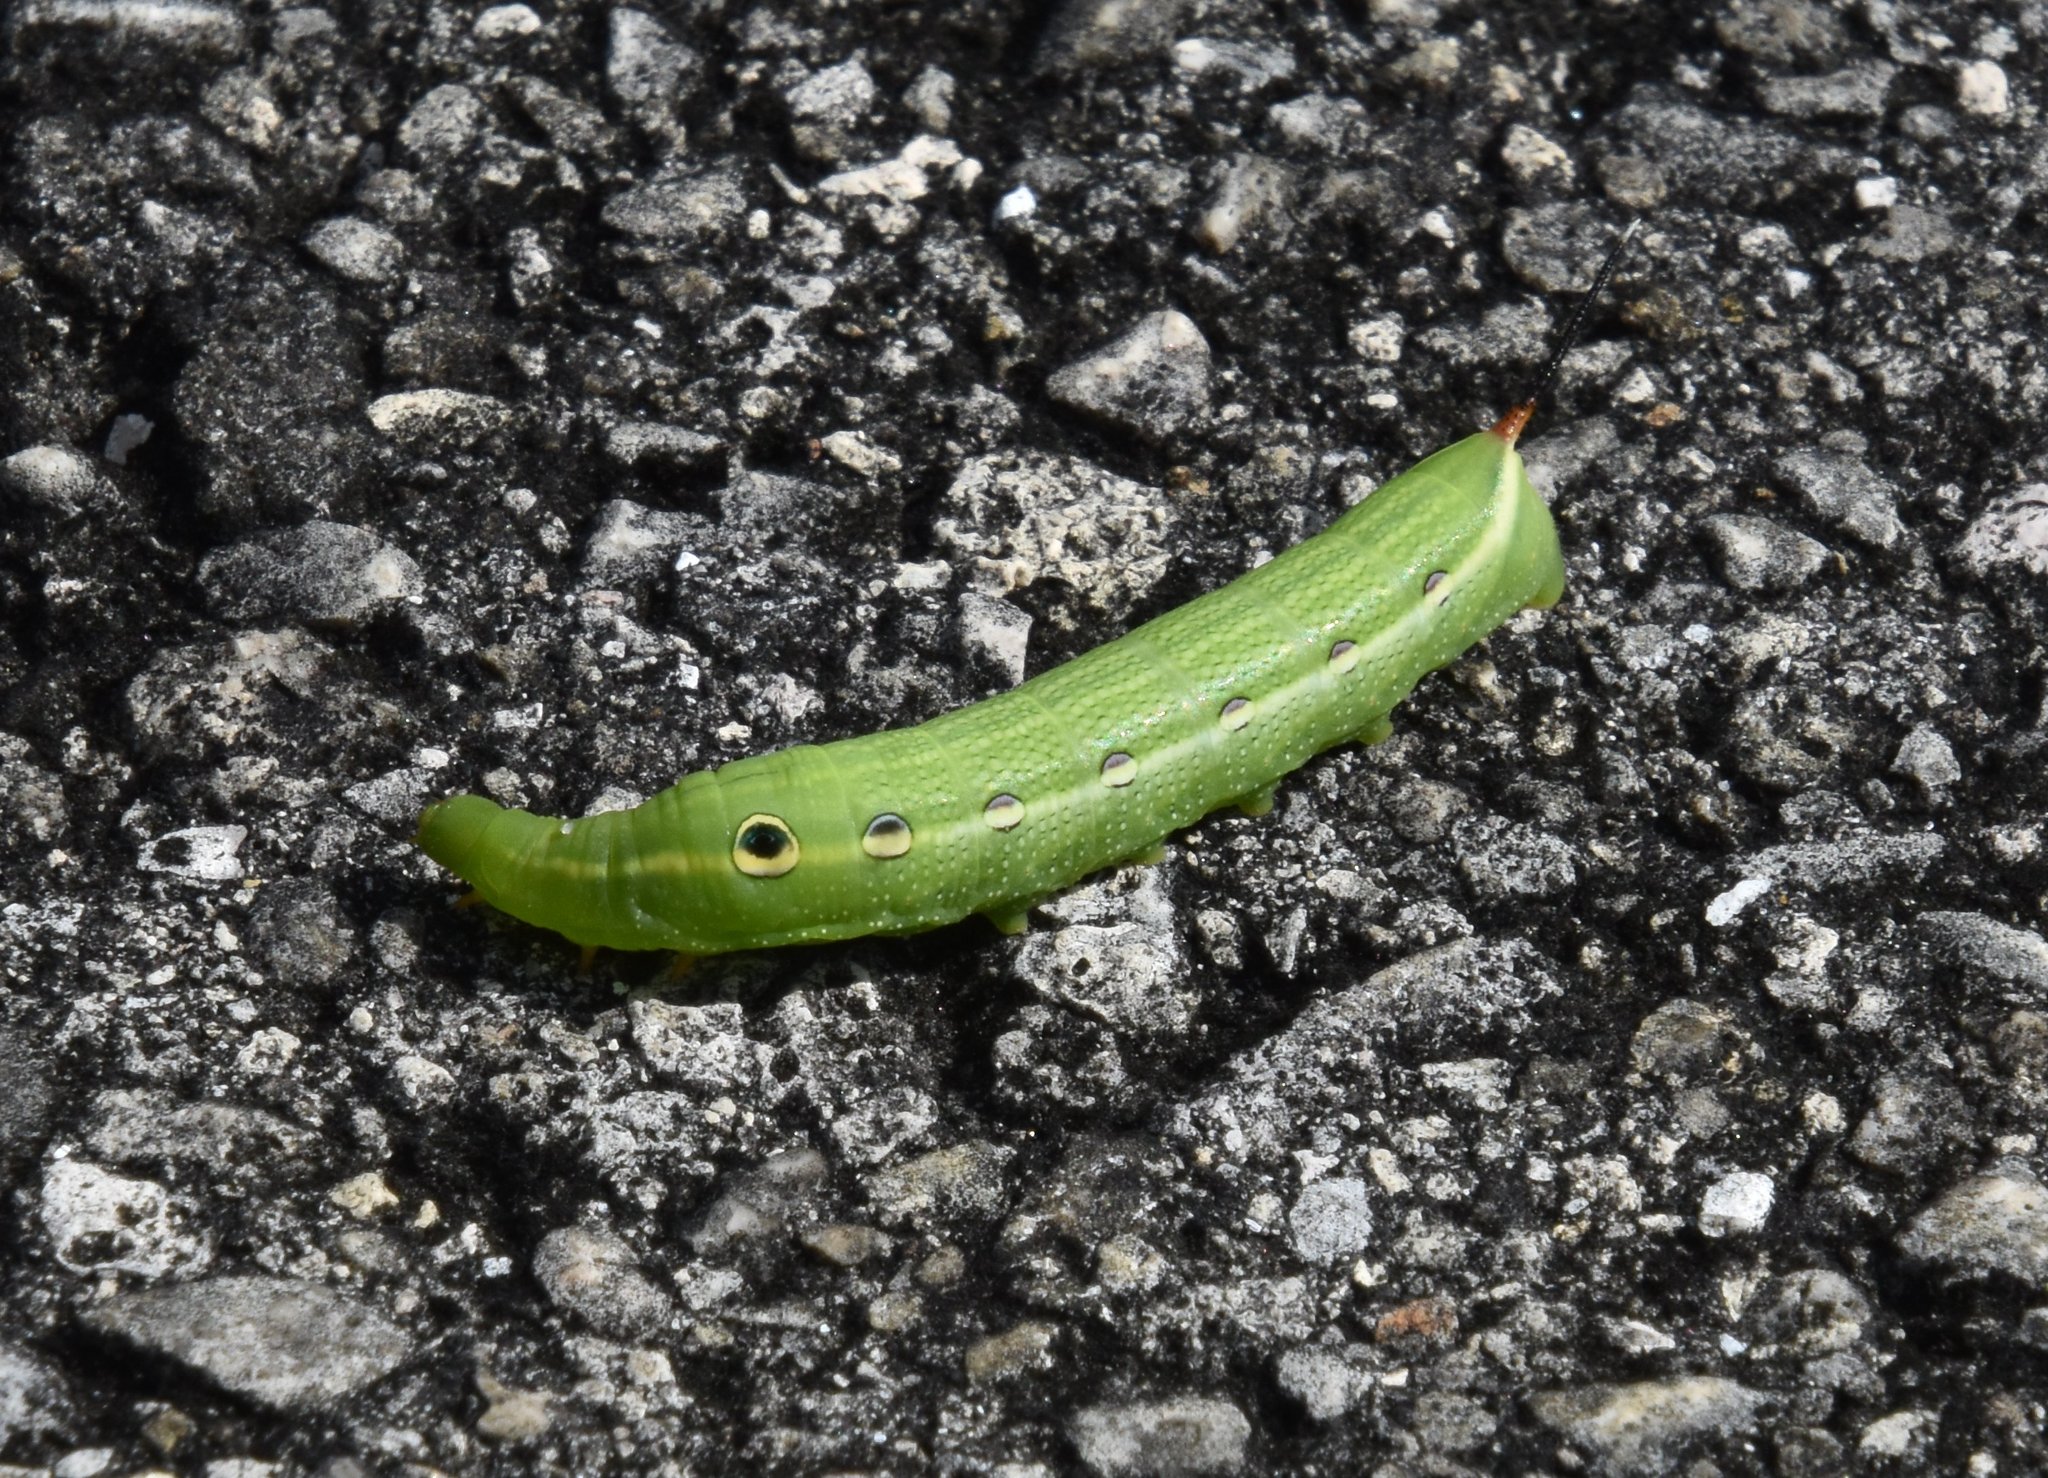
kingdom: Animalia
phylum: Arthropoda
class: Insecta
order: Lepidoptera
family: Sphingidae
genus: Xylophanes
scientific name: Xylophanes tersa
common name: Tersa sphinx
